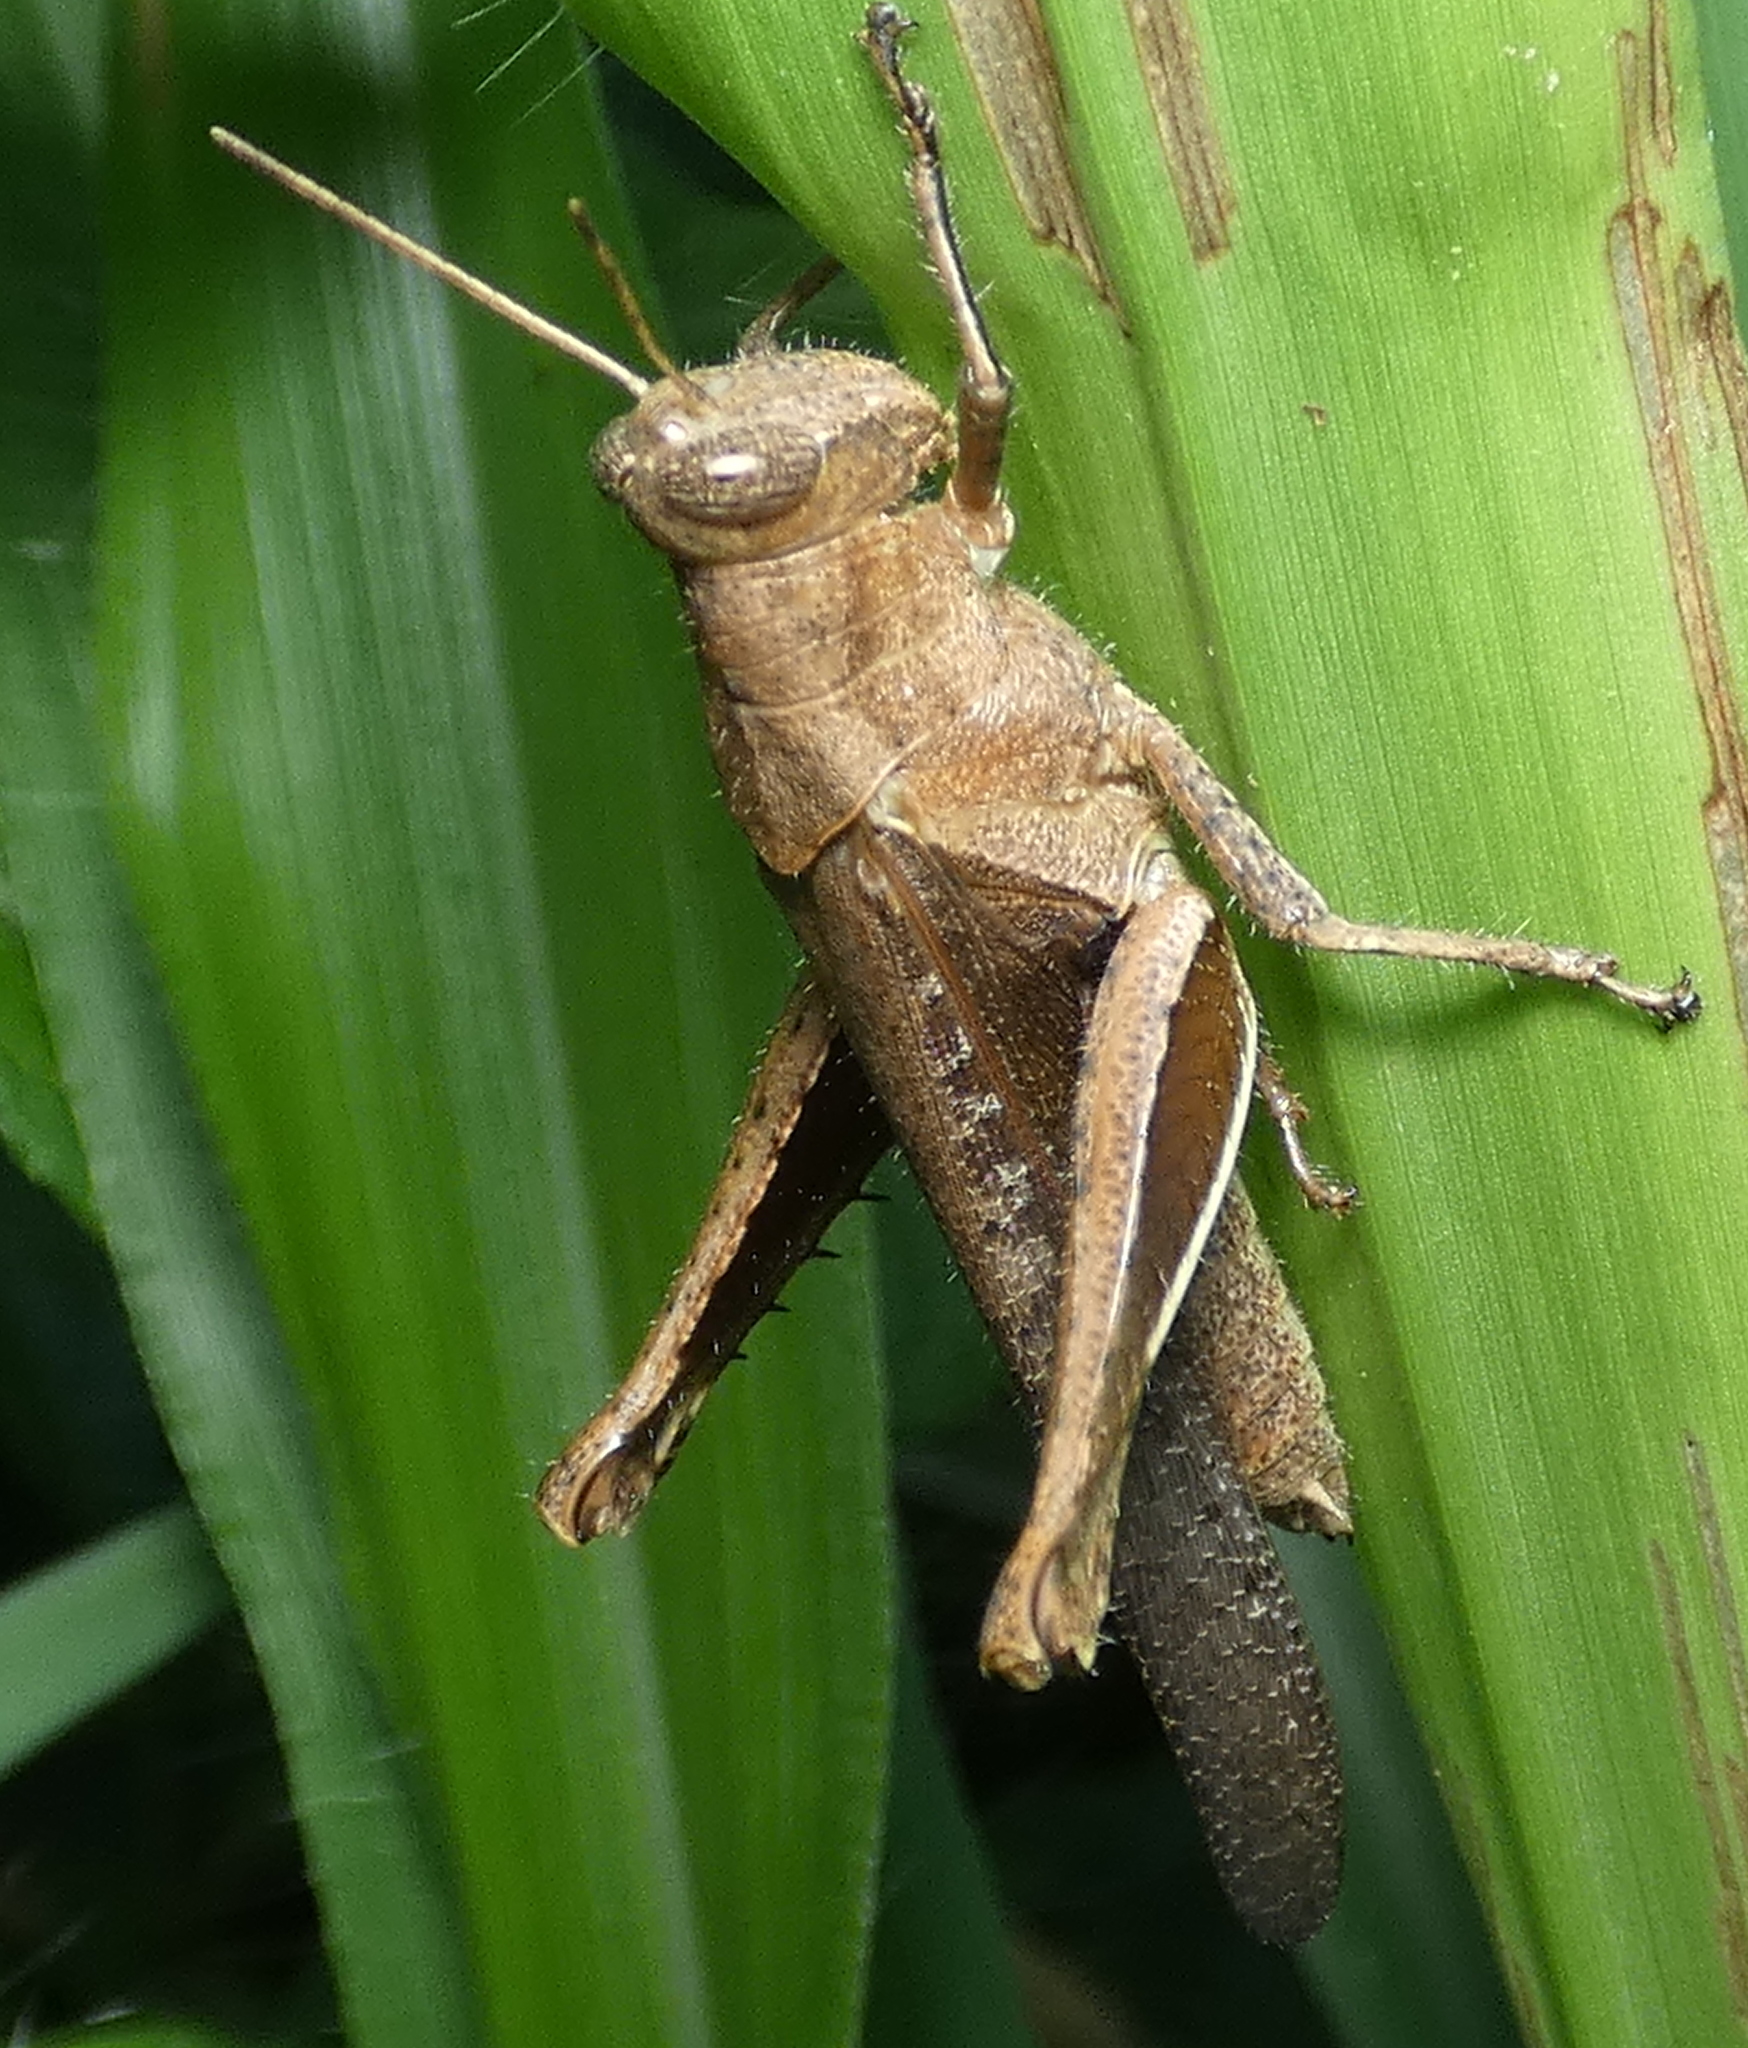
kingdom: Animalia
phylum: Arthropoda
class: Insecta
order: Orthoptera
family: Acrididae
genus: Abracris
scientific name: Abracris flavolineata
